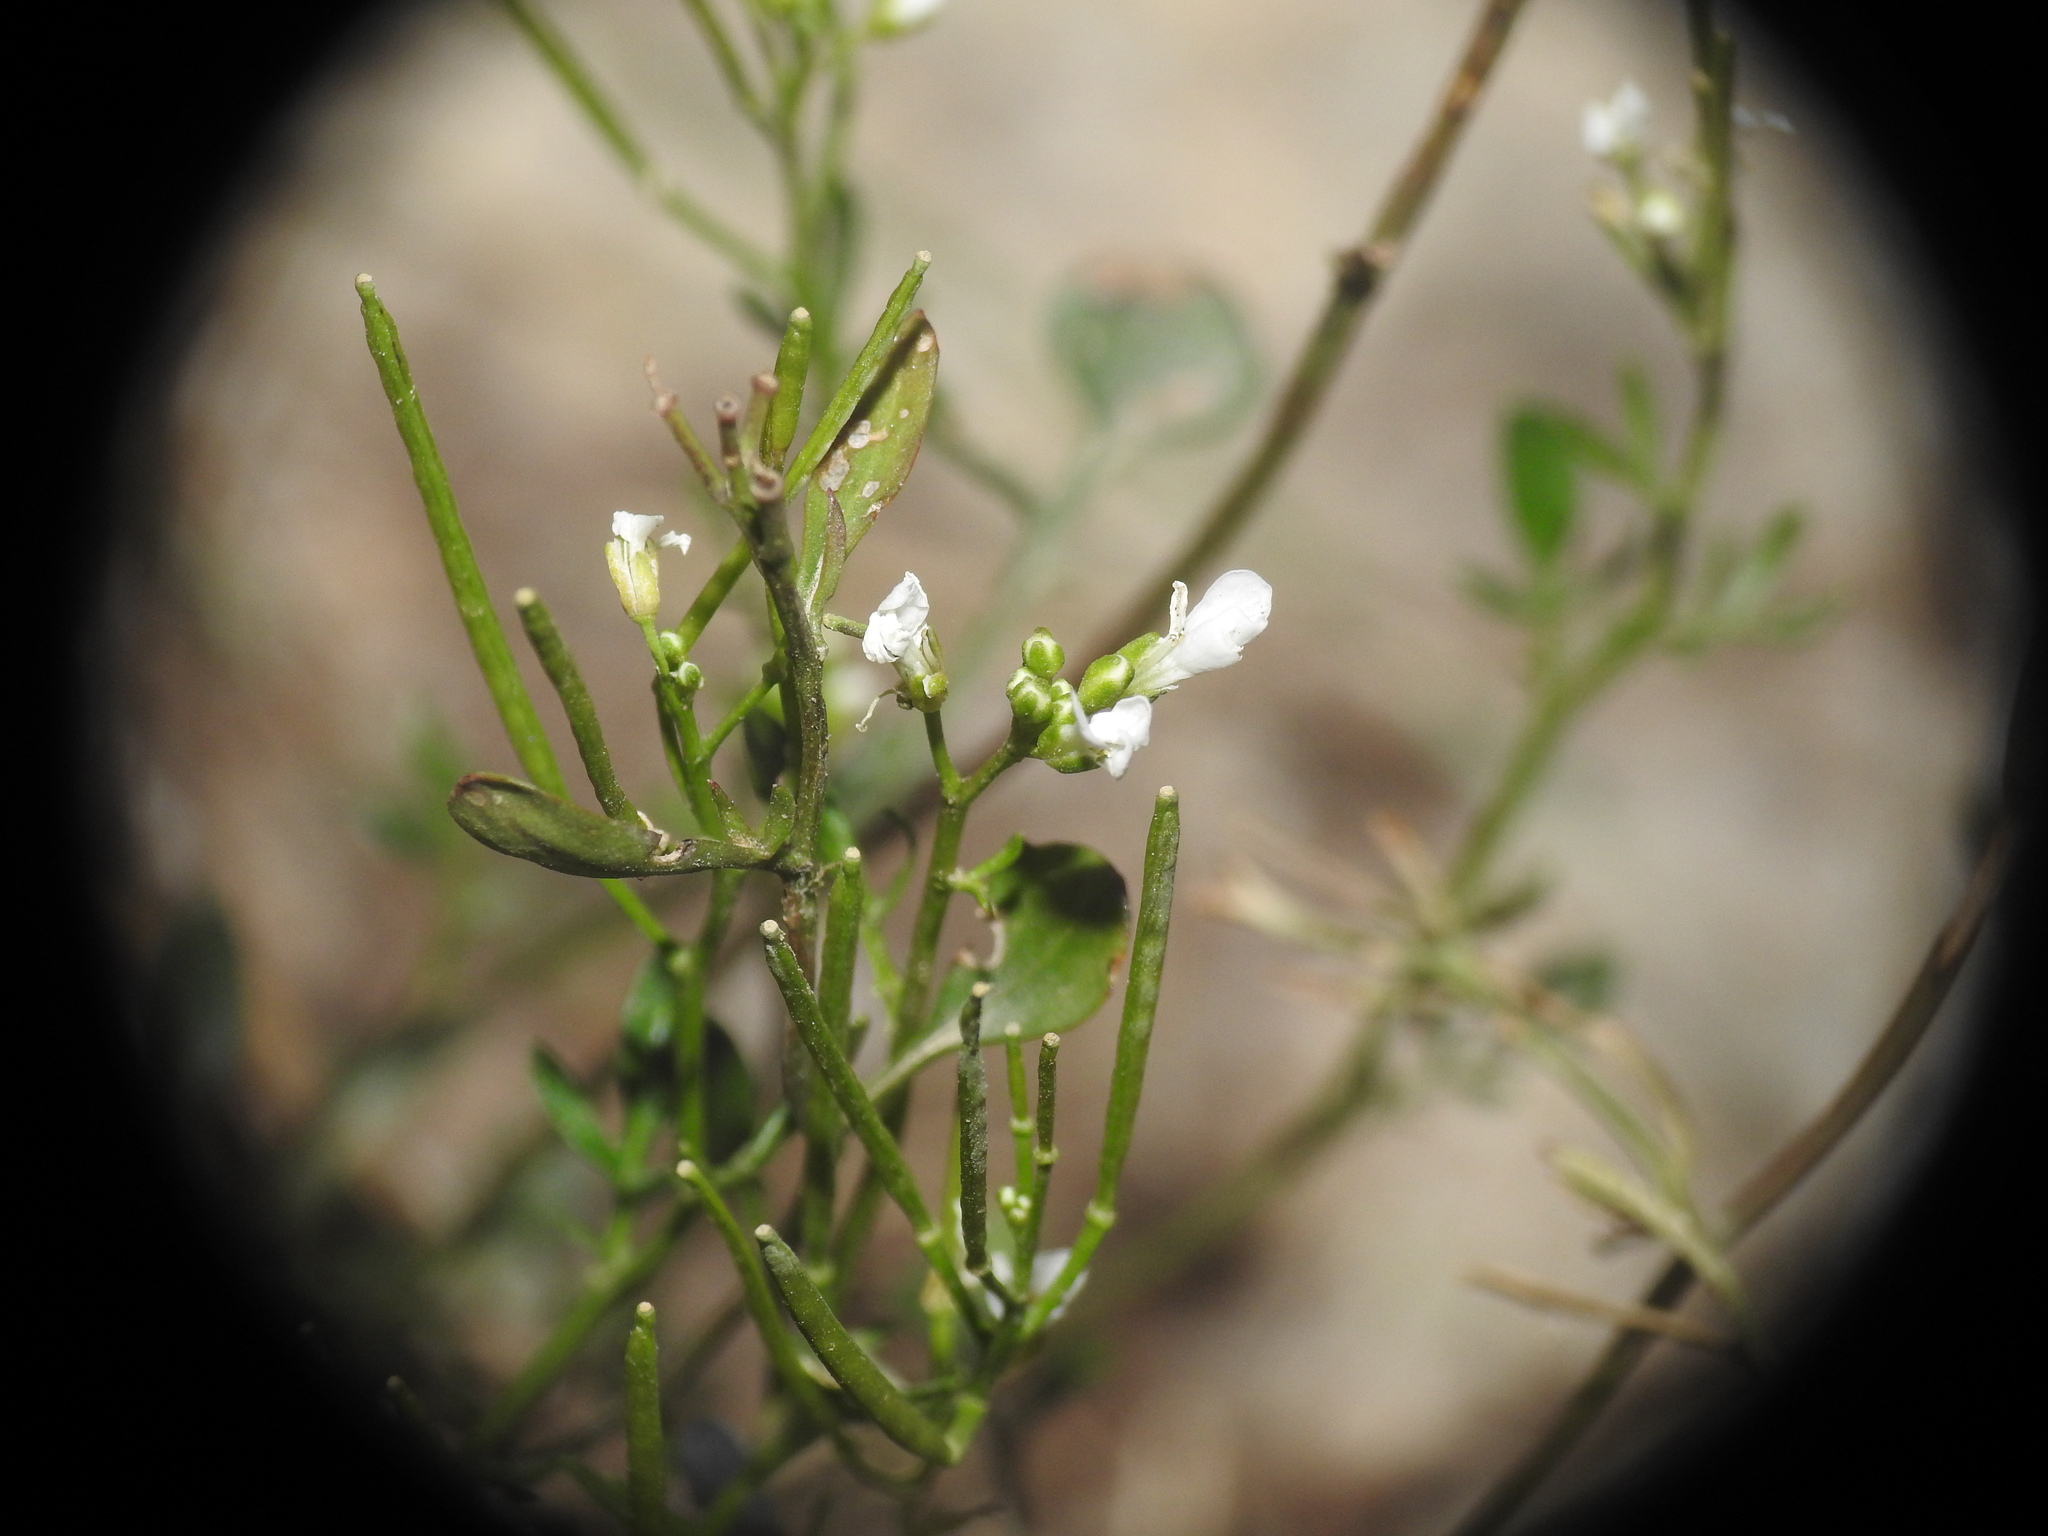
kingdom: Plantae
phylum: Tracheophyta
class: Magnoliopsida
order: Brassicales
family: Brassicaceae
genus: Cardamine
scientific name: Cardamine resedifolia
